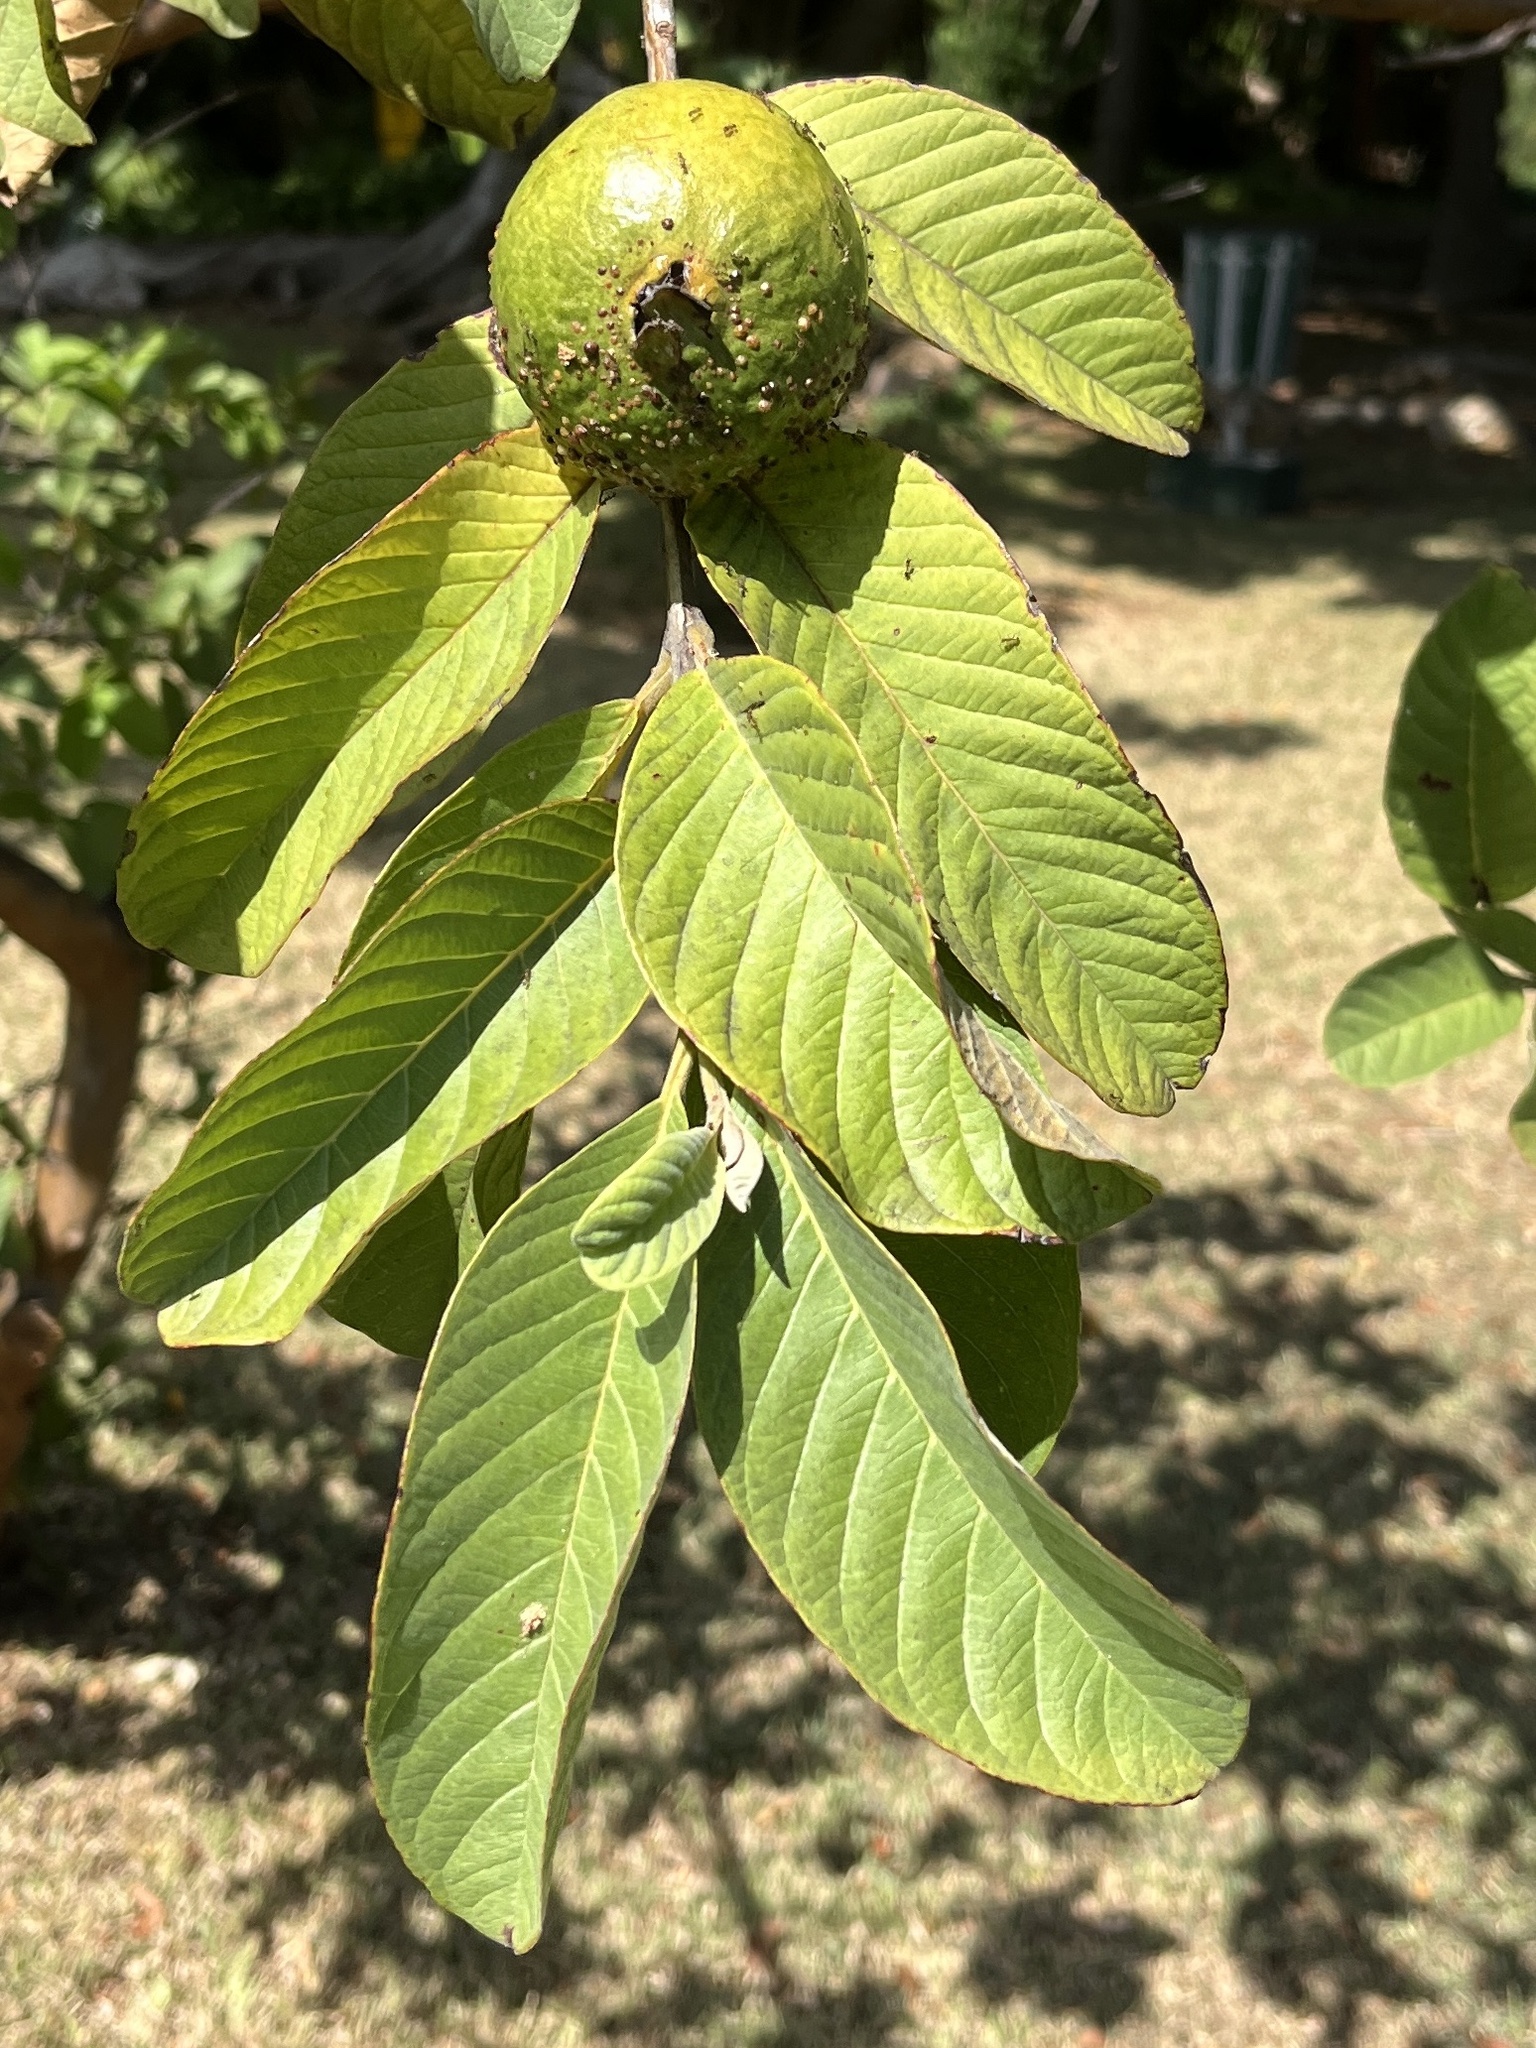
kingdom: Plantae
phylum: Tracheophyta
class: Magnoliopsida
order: Myrtales
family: Myrtaceae
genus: Psidium
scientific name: Psidium guajava
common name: Guava
